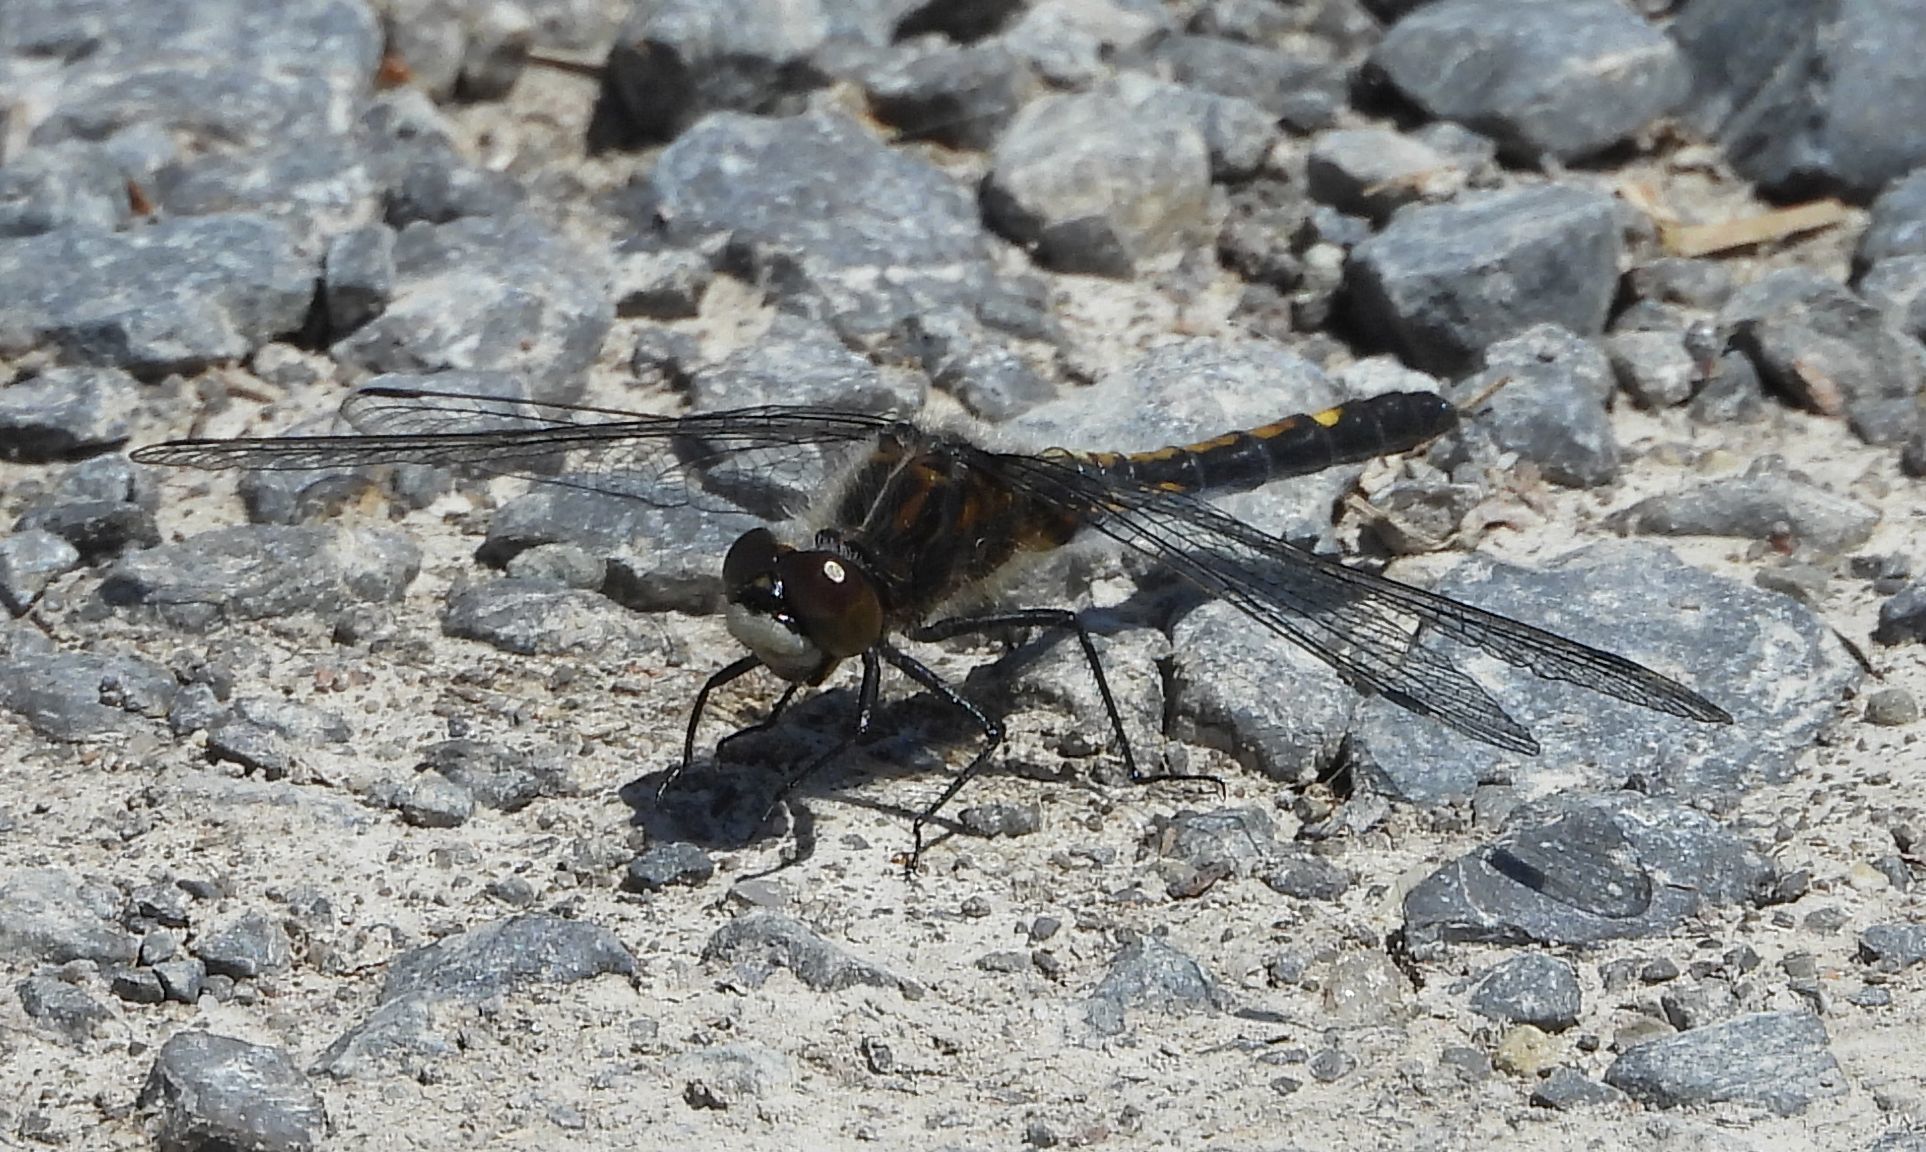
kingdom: Animalia
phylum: Arthropoda
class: Insecta
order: Odonata
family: Libellulidae
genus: Leucorrhinia
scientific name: Leucorrhinia intacta
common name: Dot-tailed whiteface
